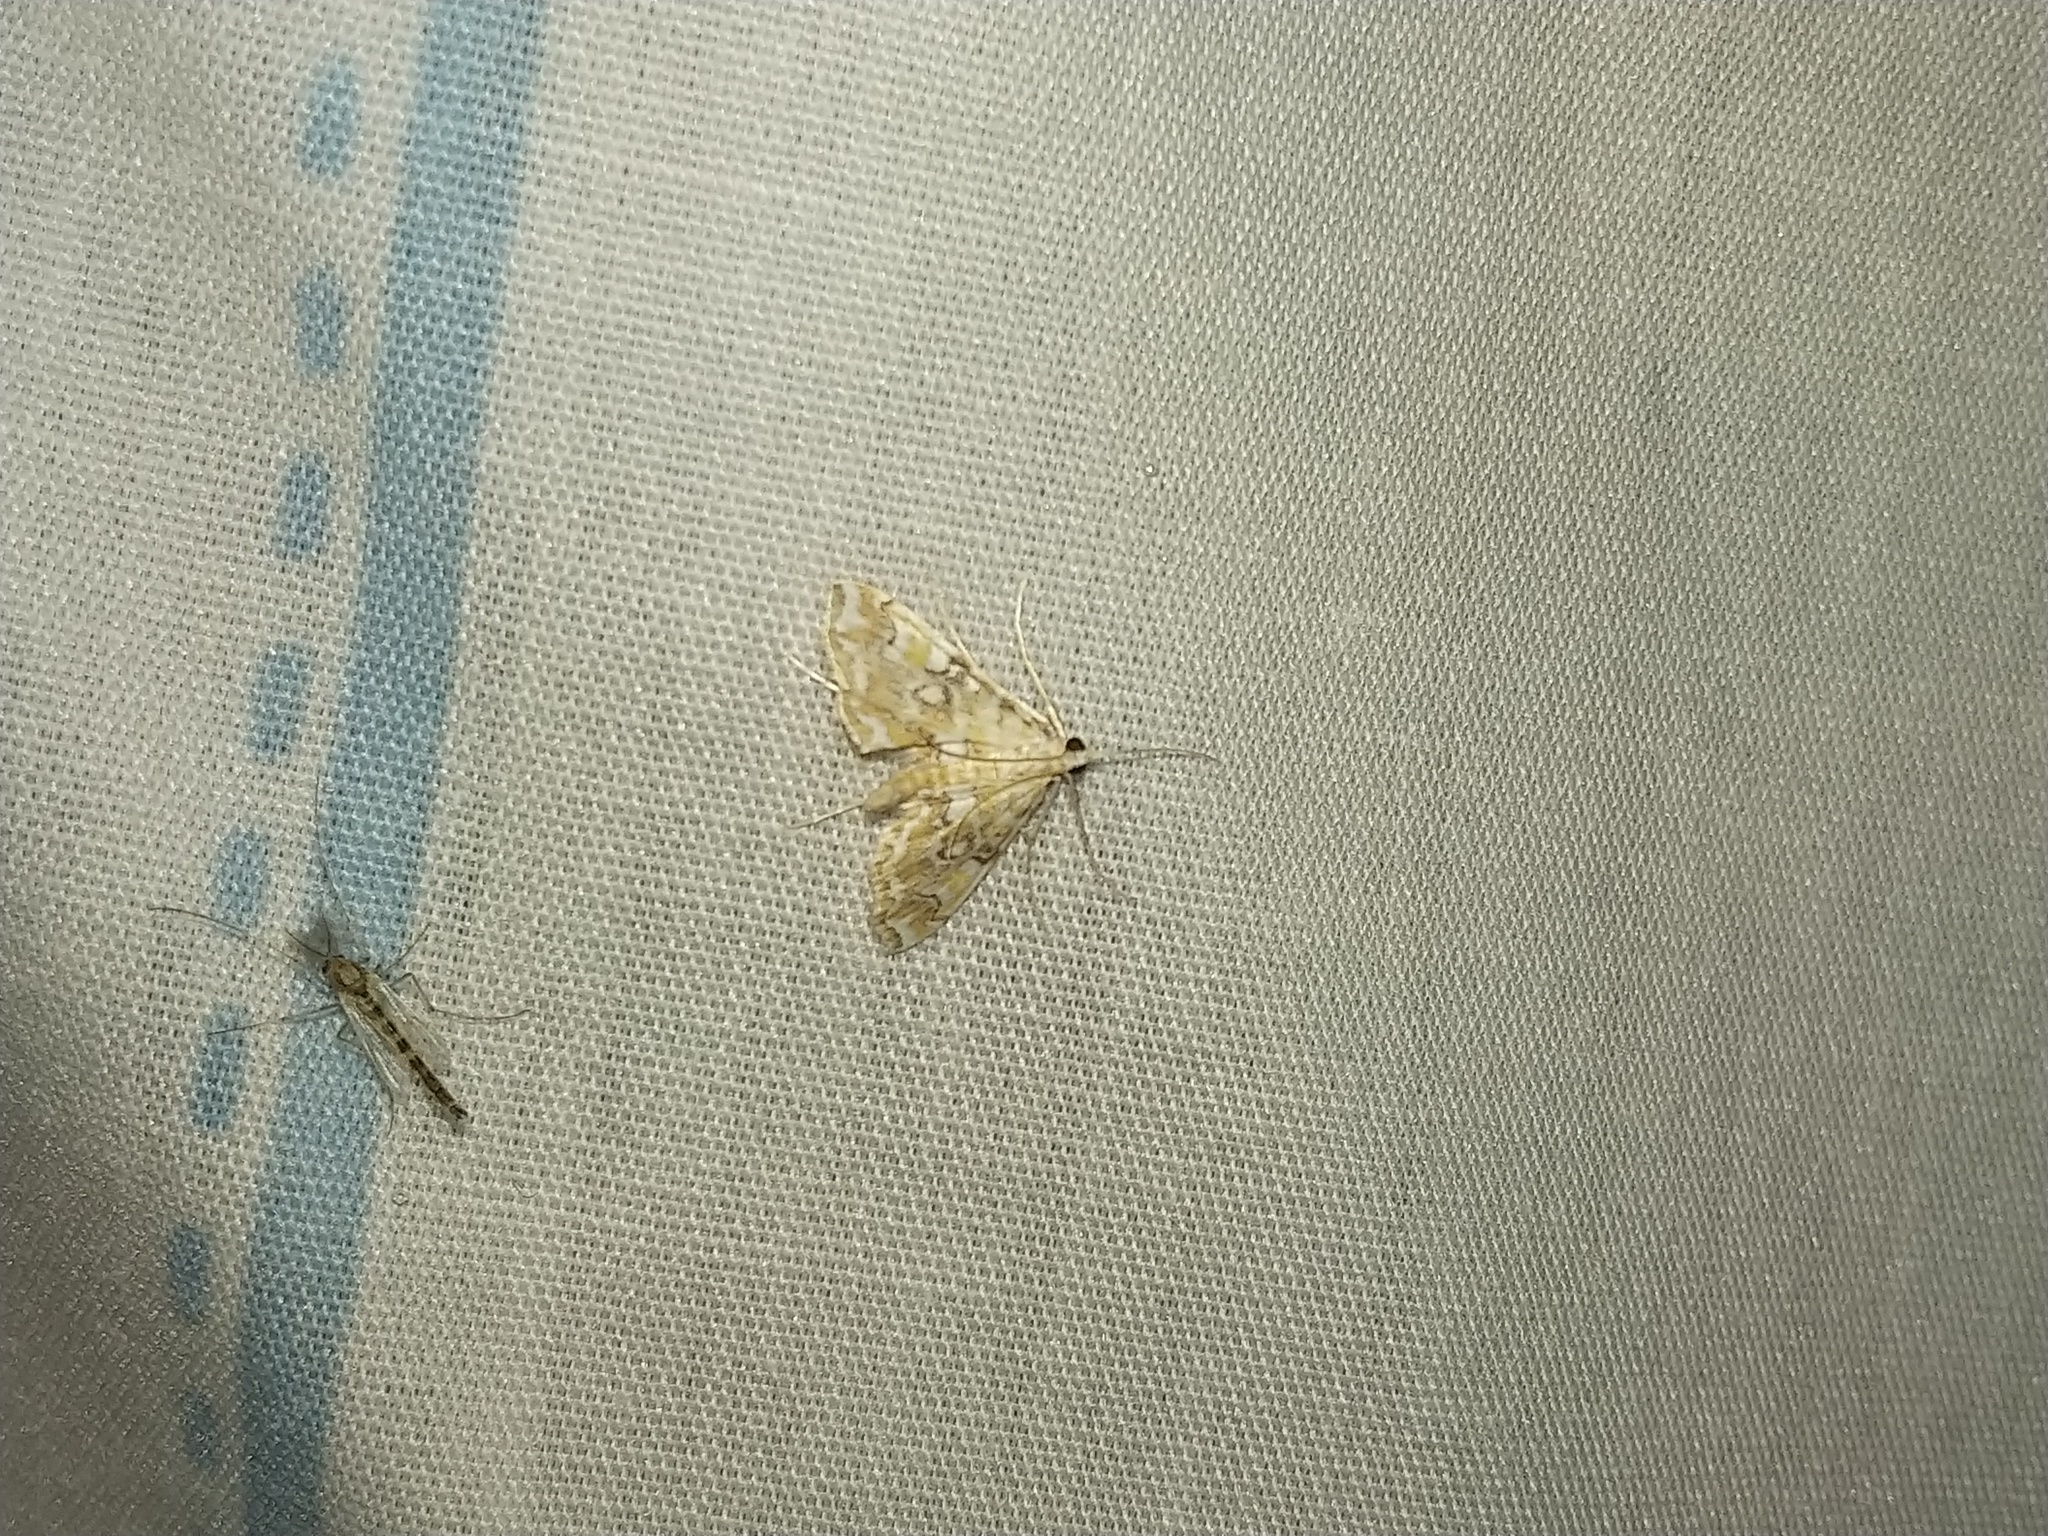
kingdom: Animalia
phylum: Arthropoda
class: Insecta
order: Lepidoptera
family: Crambidae
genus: Elophila
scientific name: Elophila icciusalis
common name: Pondside pyralid moth
